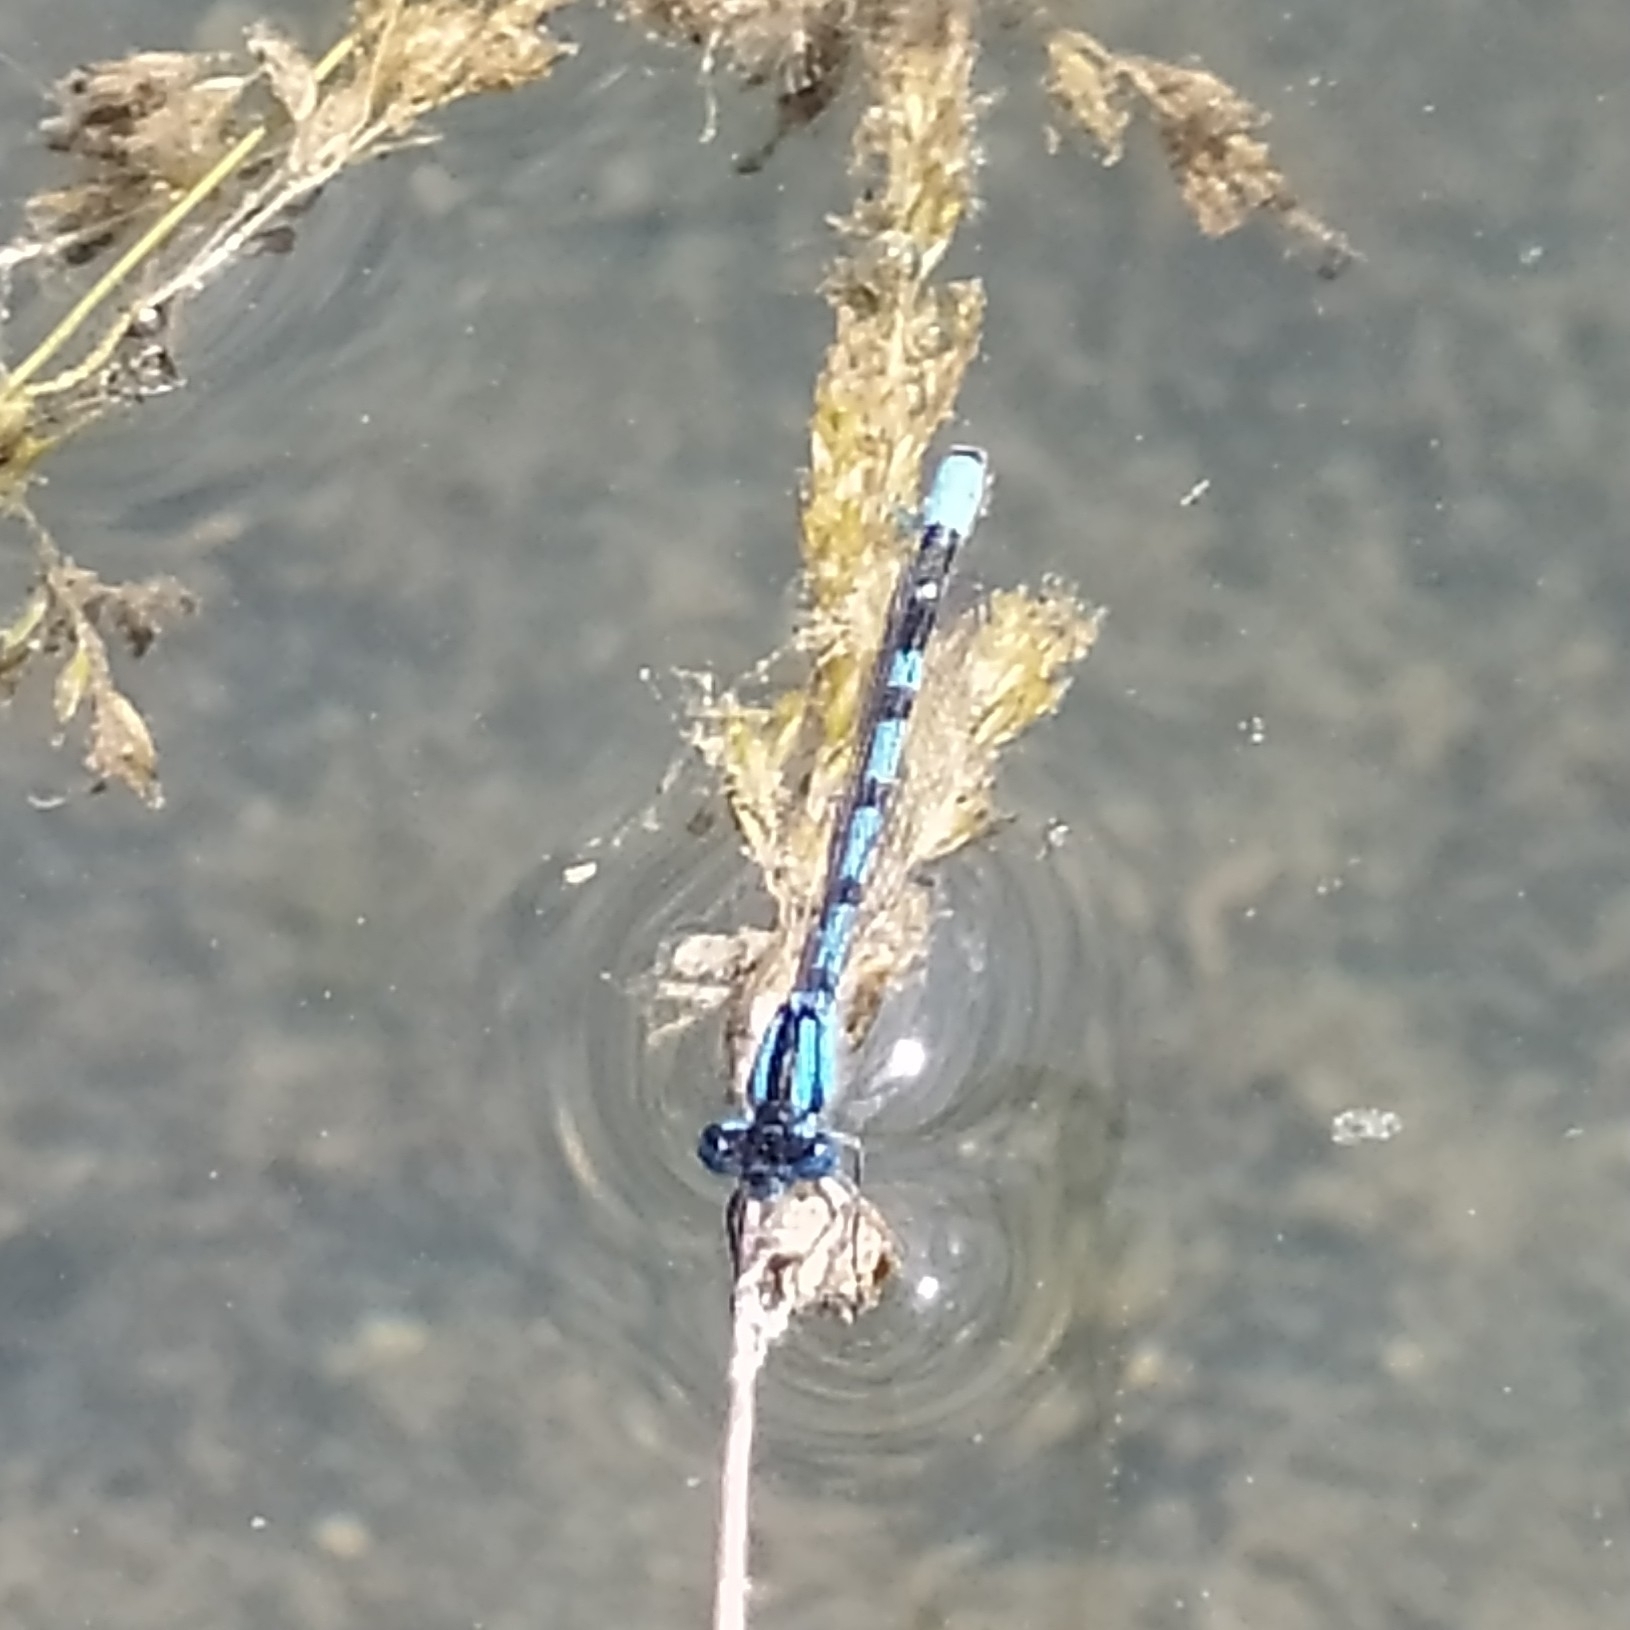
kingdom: Animalia
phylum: Arthropoda
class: Insecta
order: Odonata
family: Coenagrionidae
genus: Enallagma
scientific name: Enallagma cyathigerum
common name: Common blue damselfly
